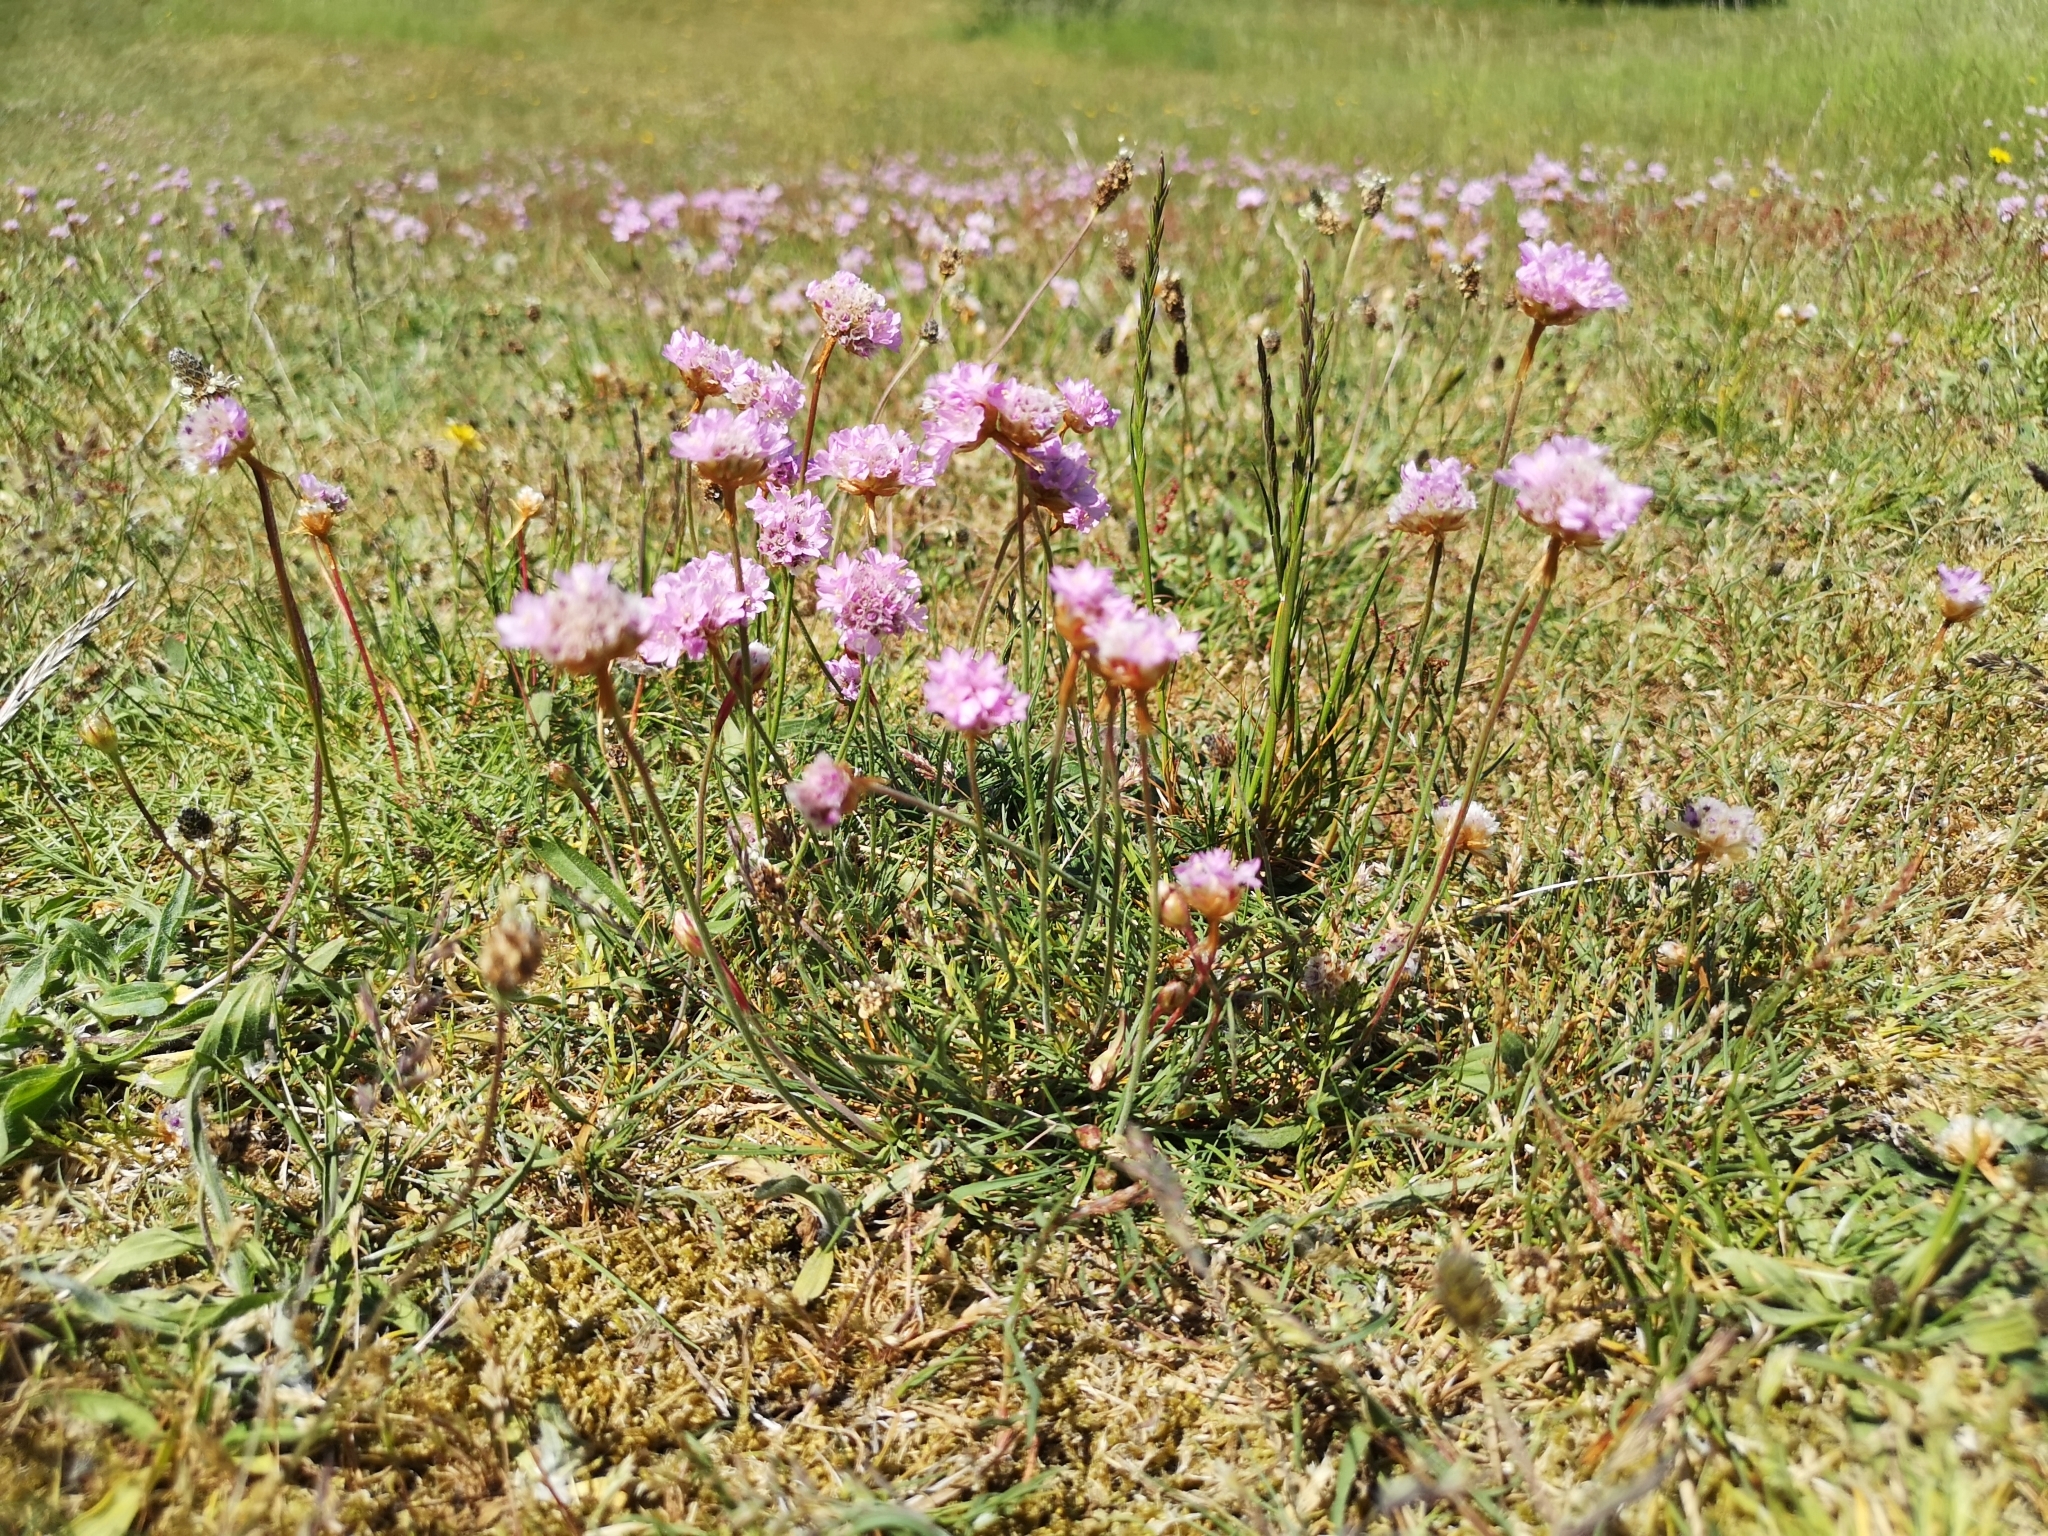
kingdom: Plantae
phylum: Tracheophyta
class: Magnoliopsida
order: Caryophyllales
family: Plumbaginaceae
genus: Armeria
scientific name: Armeria maritima
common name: Thrift
